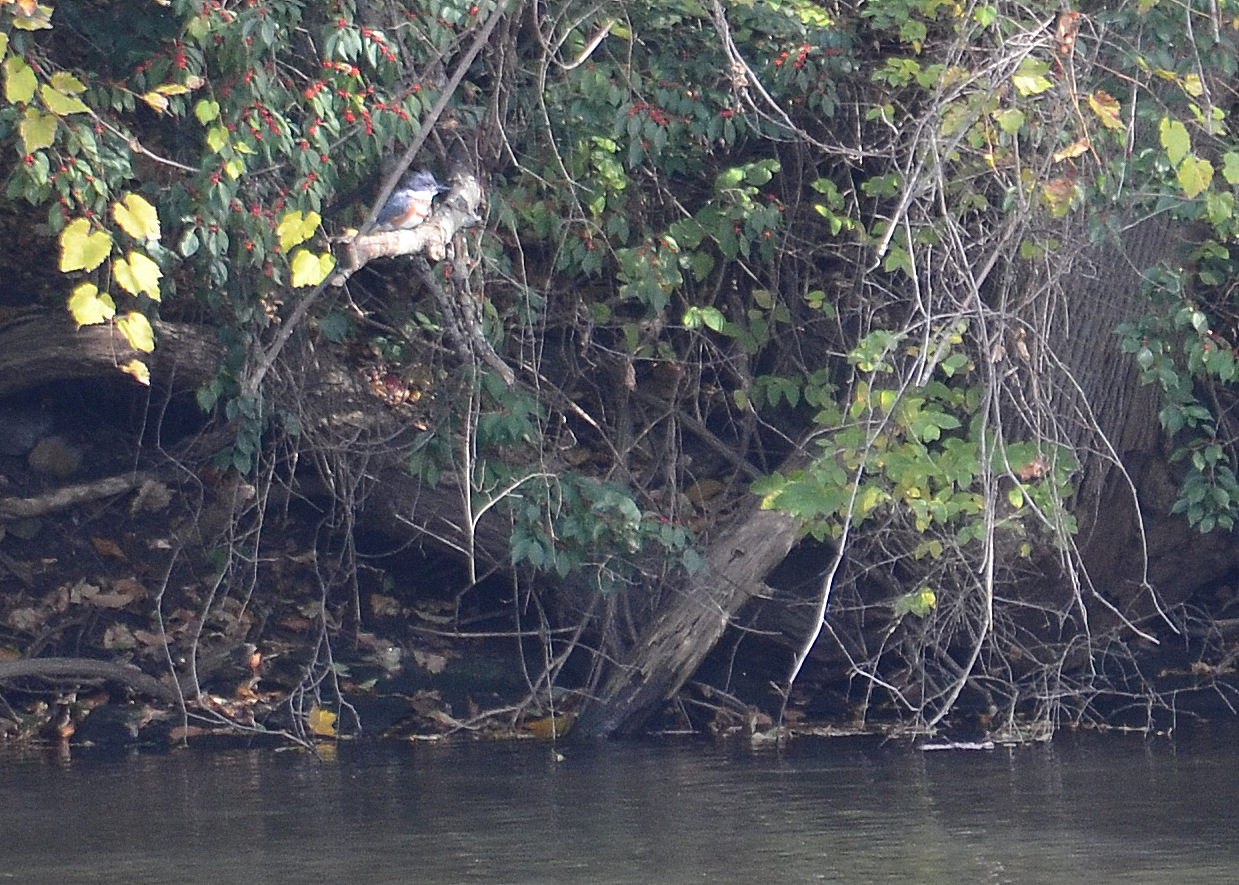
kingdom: Animalia
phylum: Chordata
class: Aves
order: Coraciiformes
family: Alcedinidae
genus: Megaceryle
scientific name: Megaceryle alcyon
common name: Belted kingfisher
